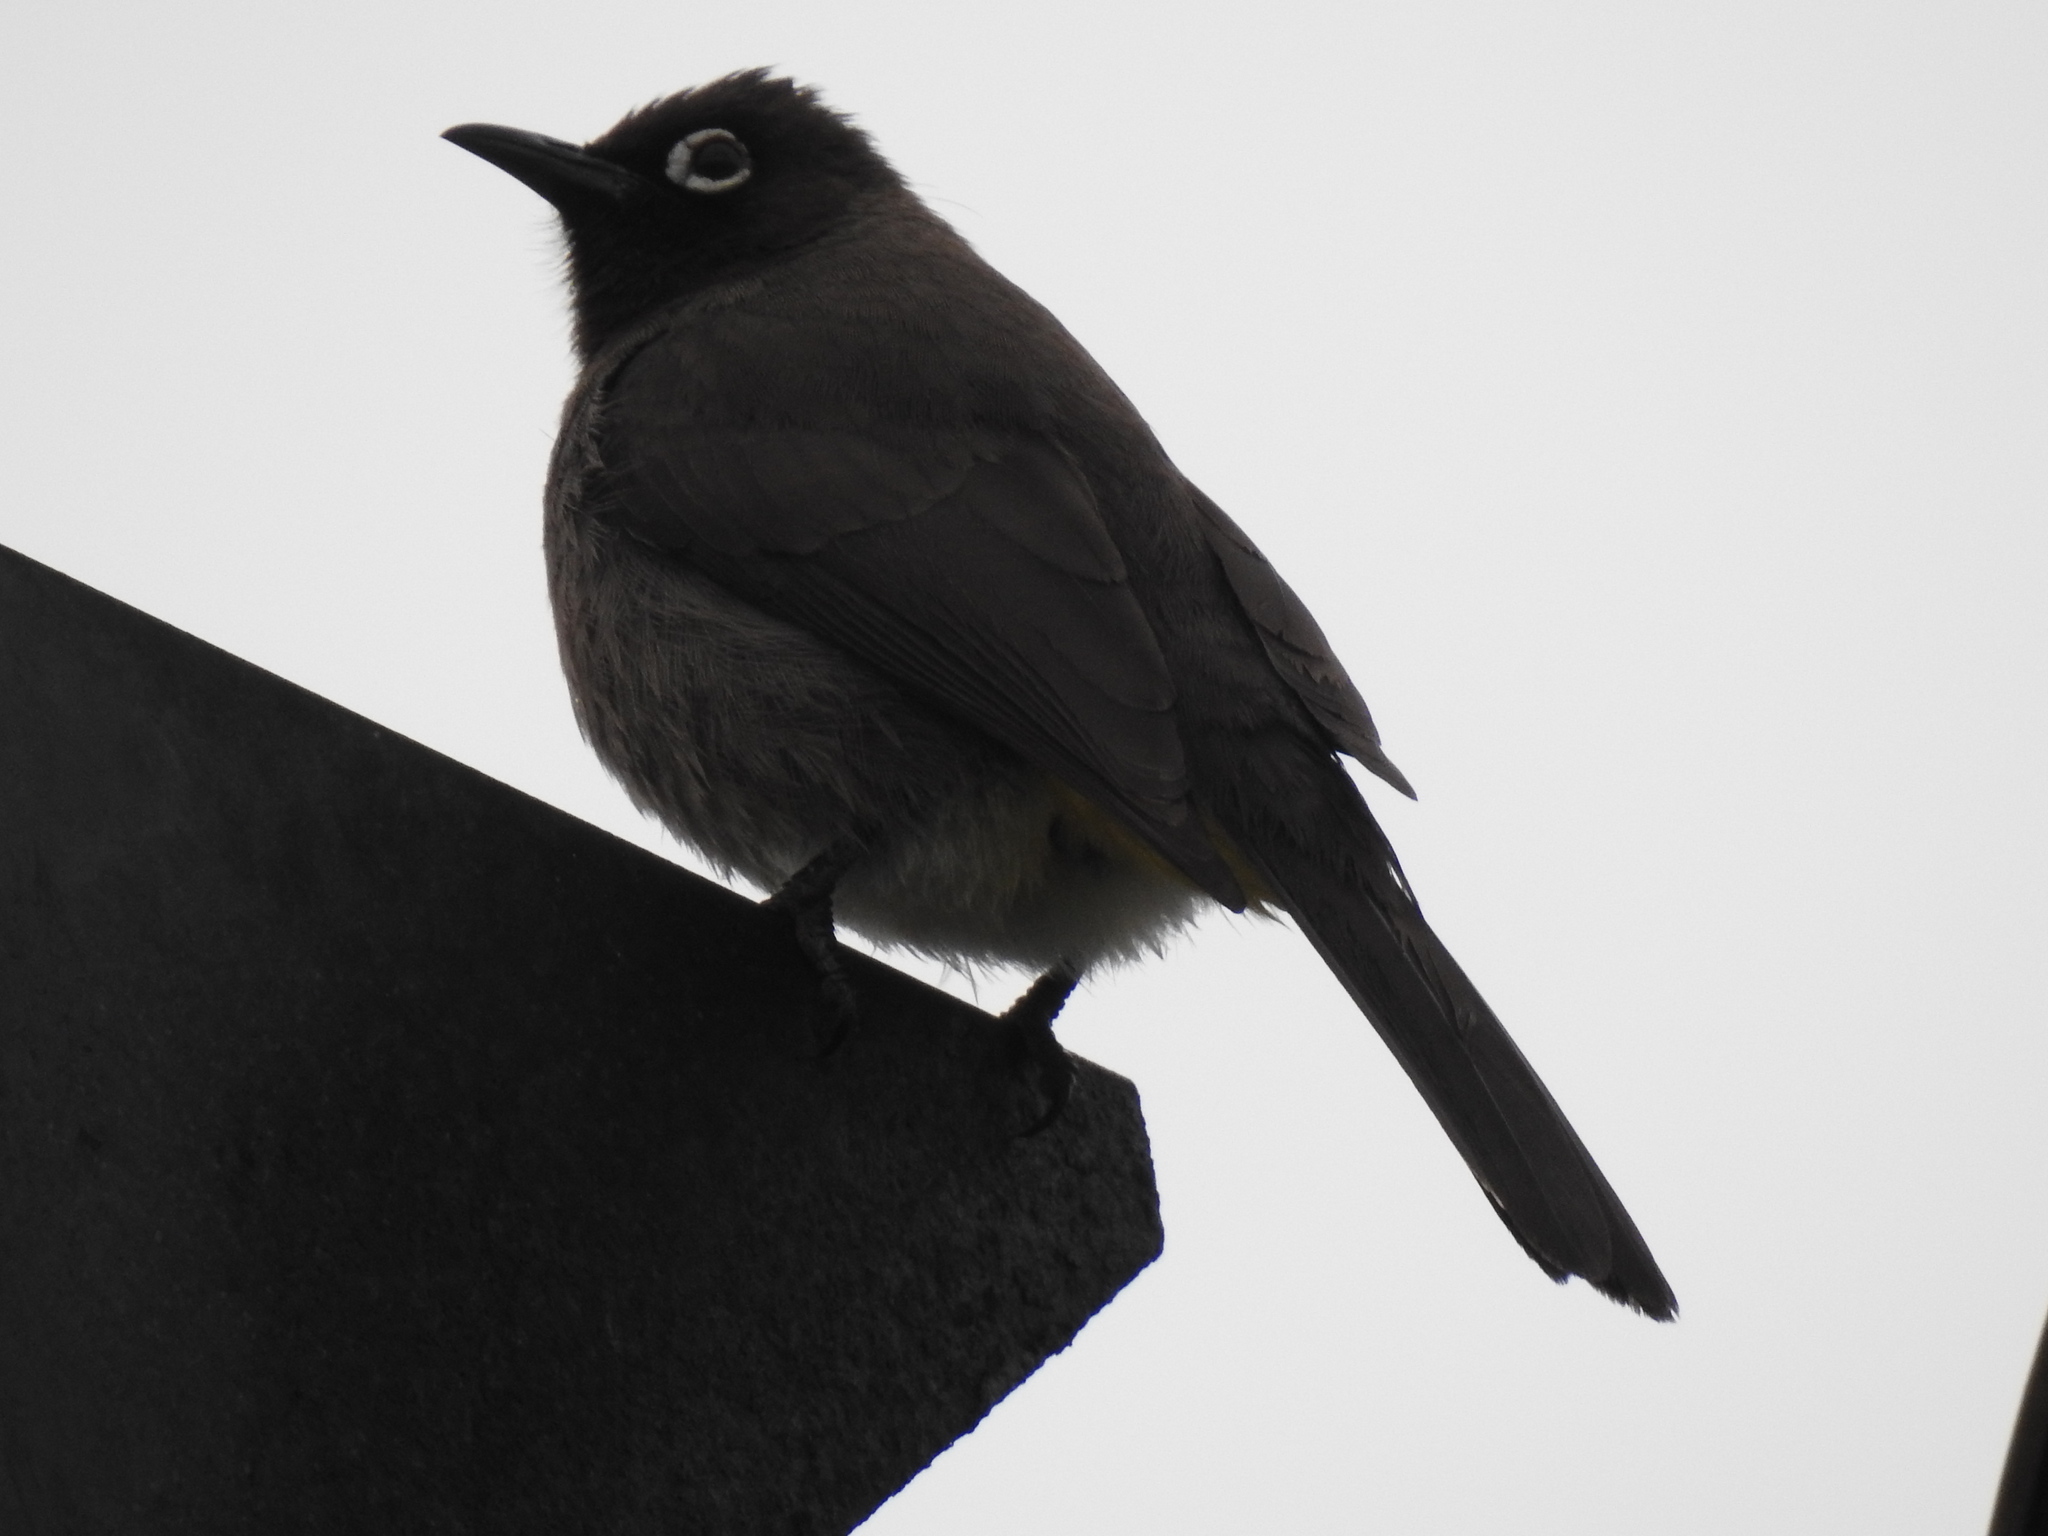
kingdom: Animalia
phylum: Chordata
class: Aves
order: Passeriformes
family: Pycnonotidae
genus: Pycnonotus
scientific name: Pycnonotus capensis
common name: Cape bulbul
